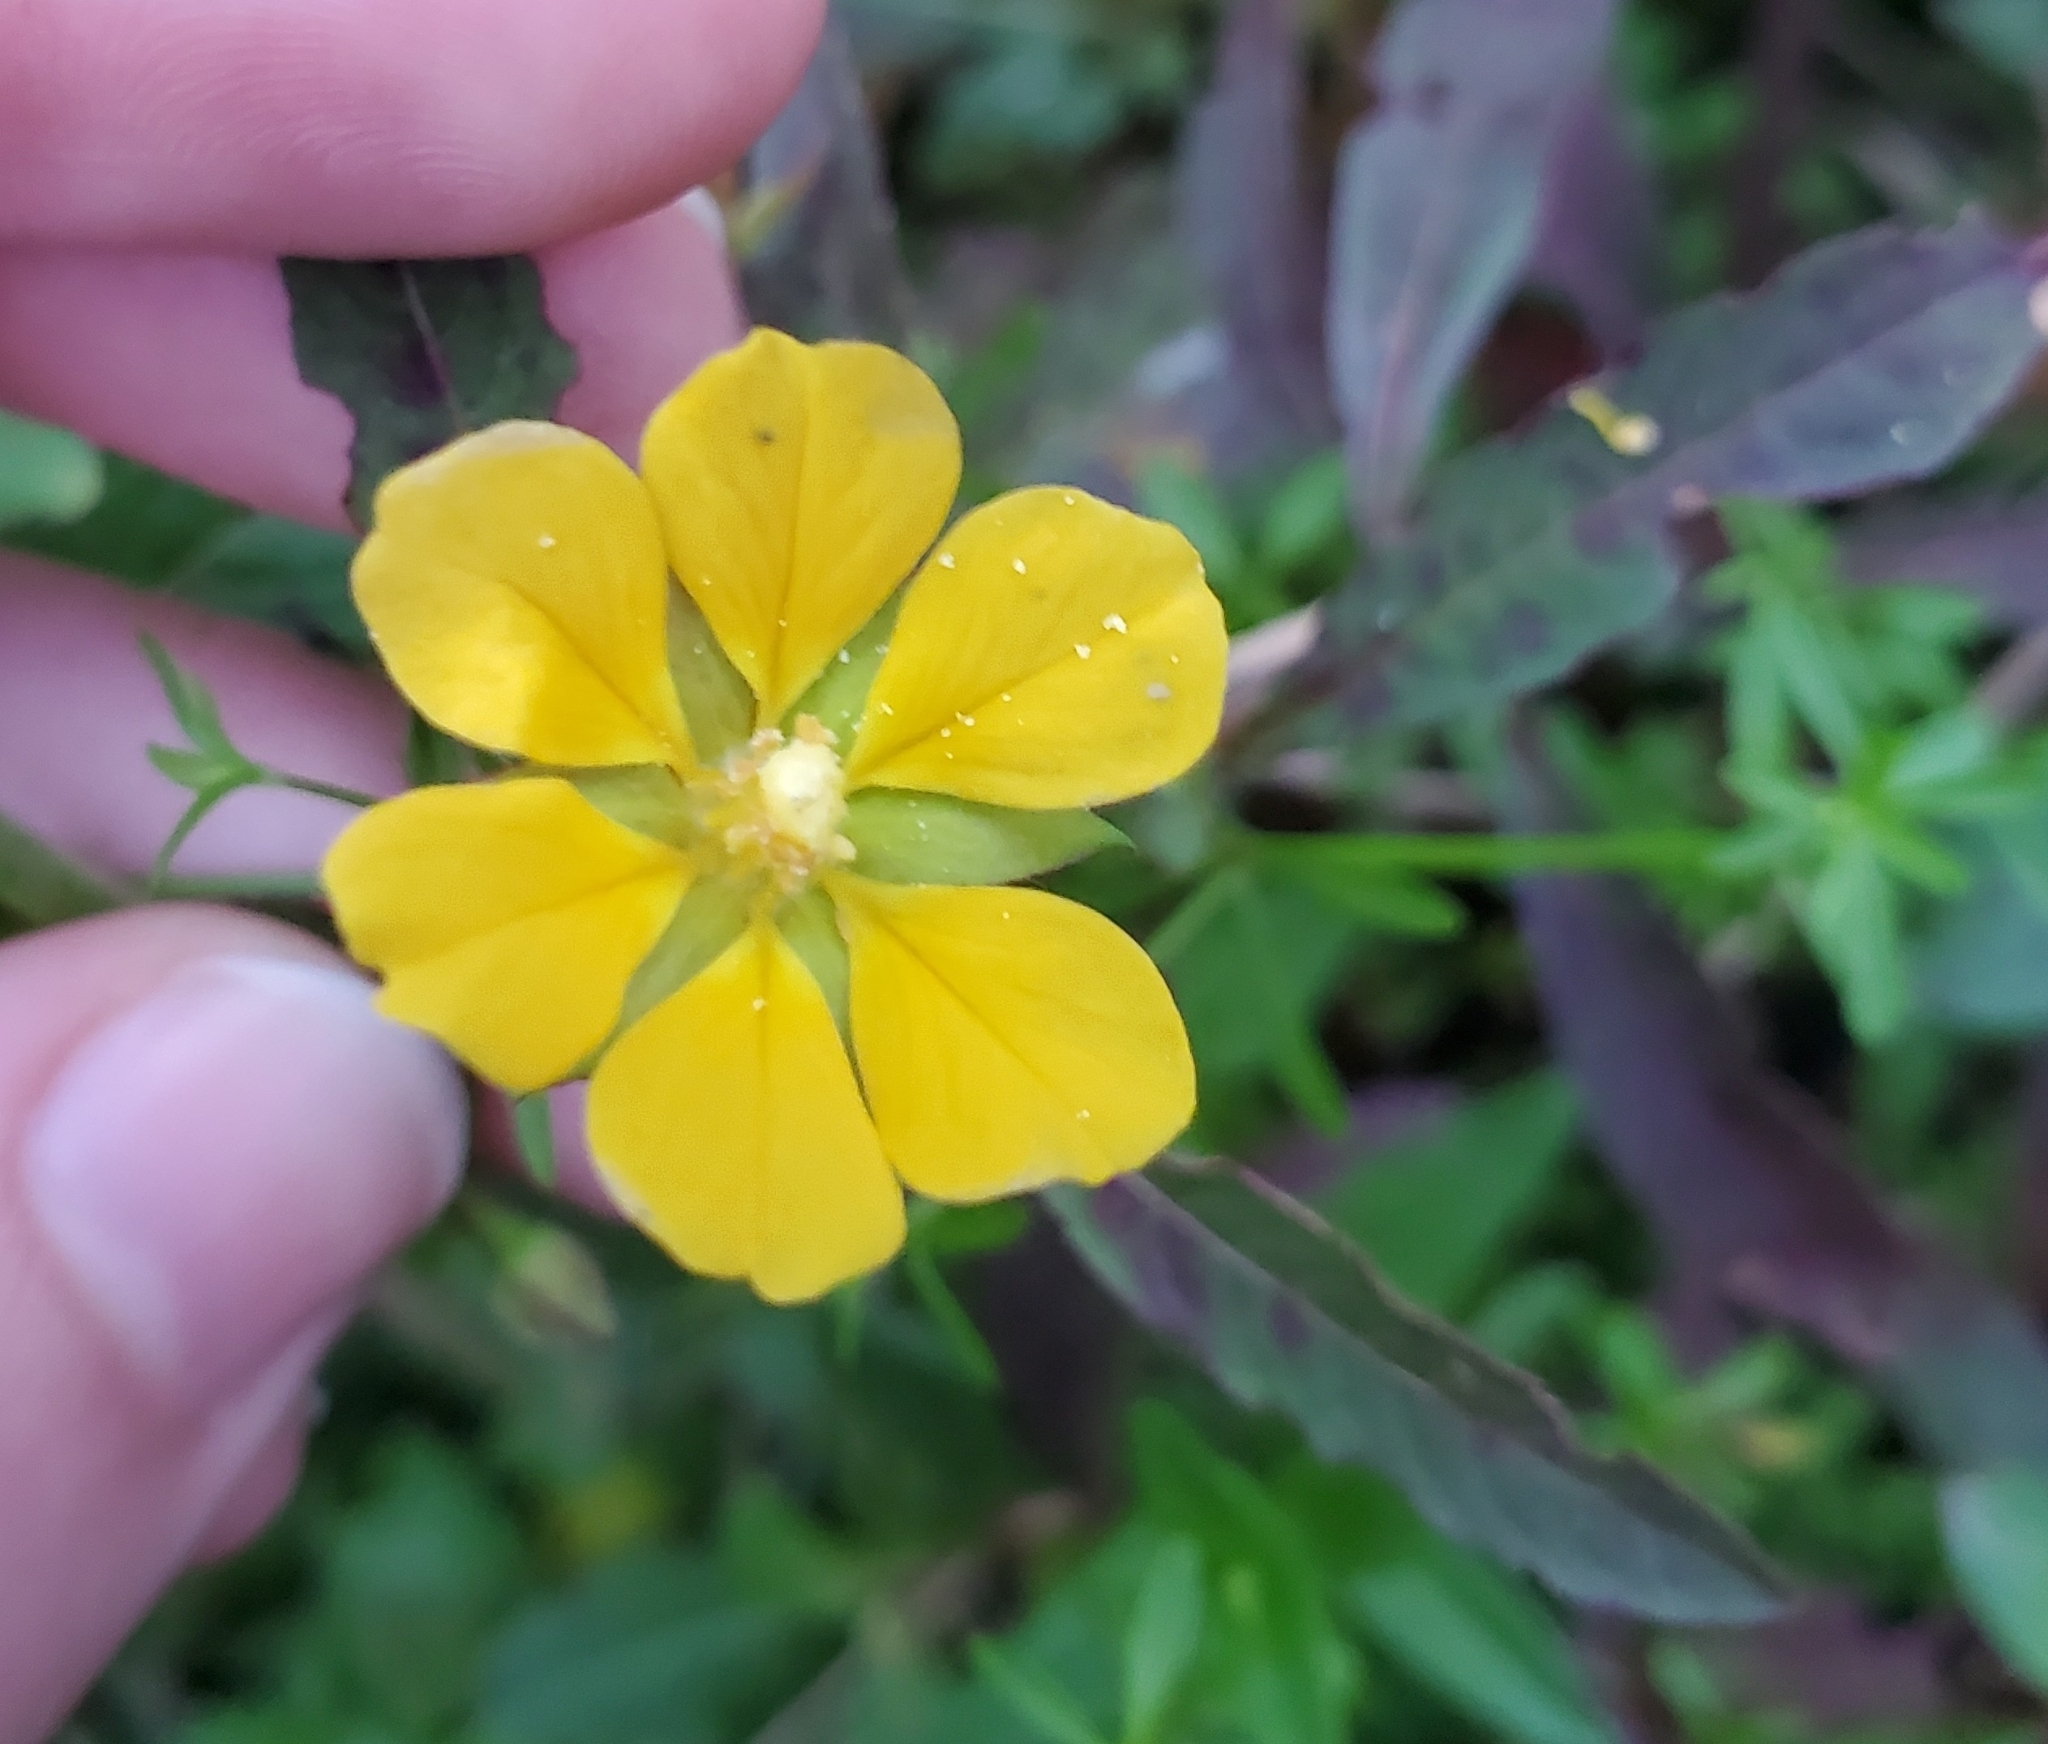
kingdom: Plantae
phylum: Tracheophyta
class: Magnoliopsida
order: Myrtales
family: Onagraceae
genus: Ludwigia
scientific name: Ludwigia leptocarpa
